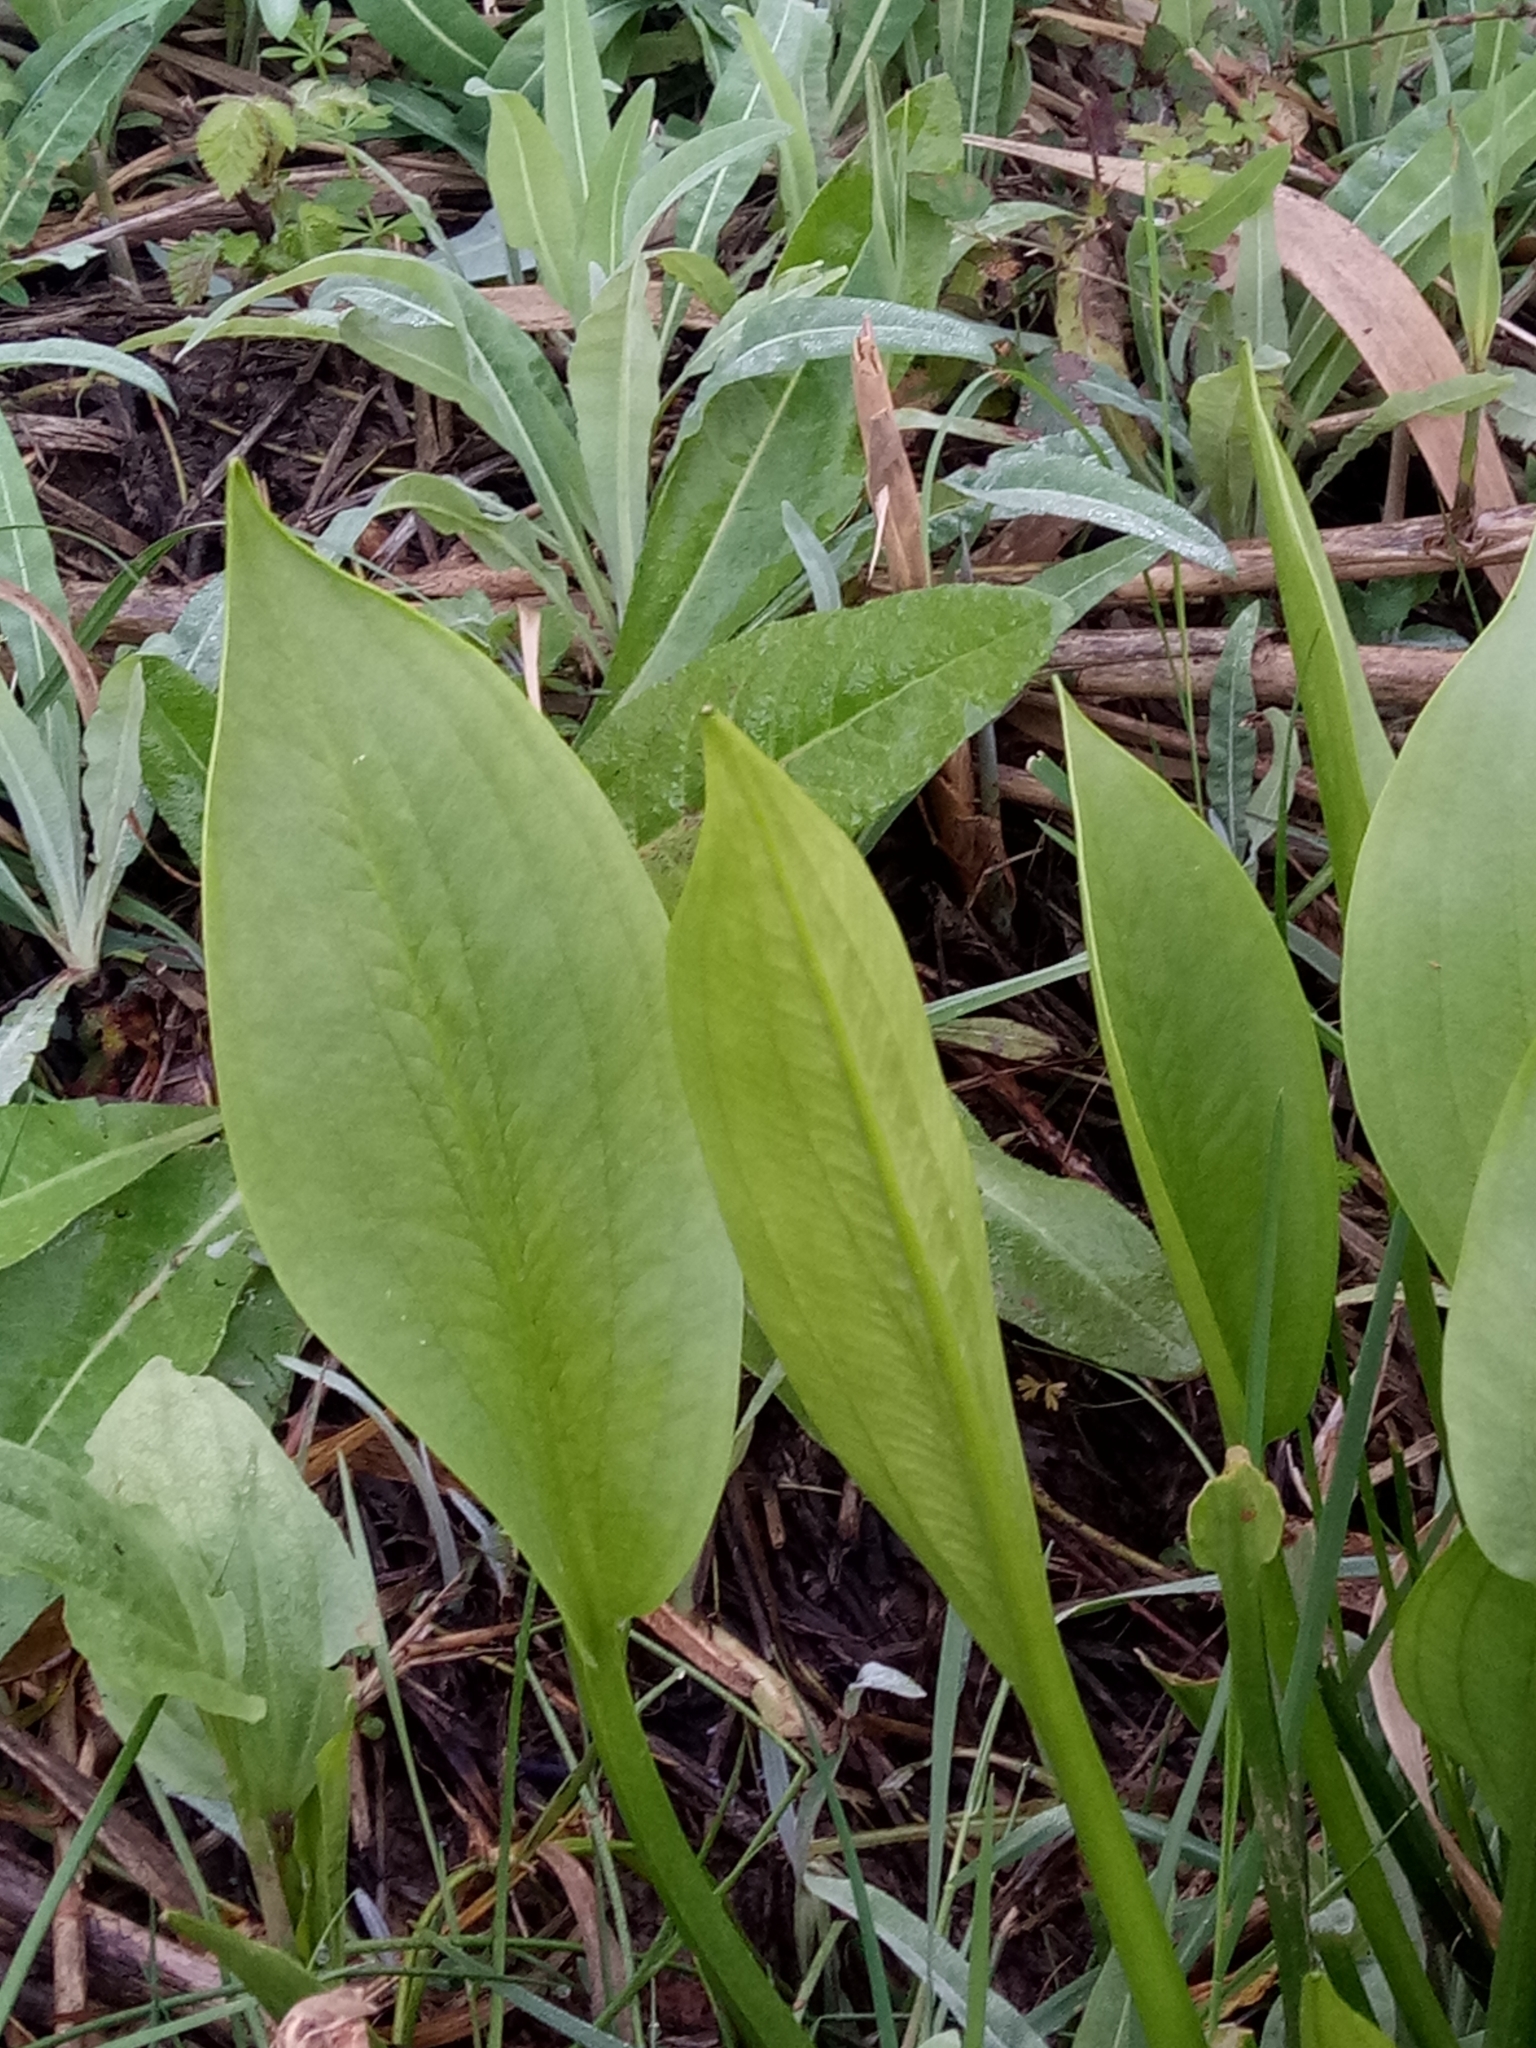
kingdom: Plantae
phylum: Tracheophyta
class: Liliopsida
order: Alismatales
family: Alismataceae
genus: Alisma
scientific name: Alisma plantago-aquatica
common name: Water-plantain
